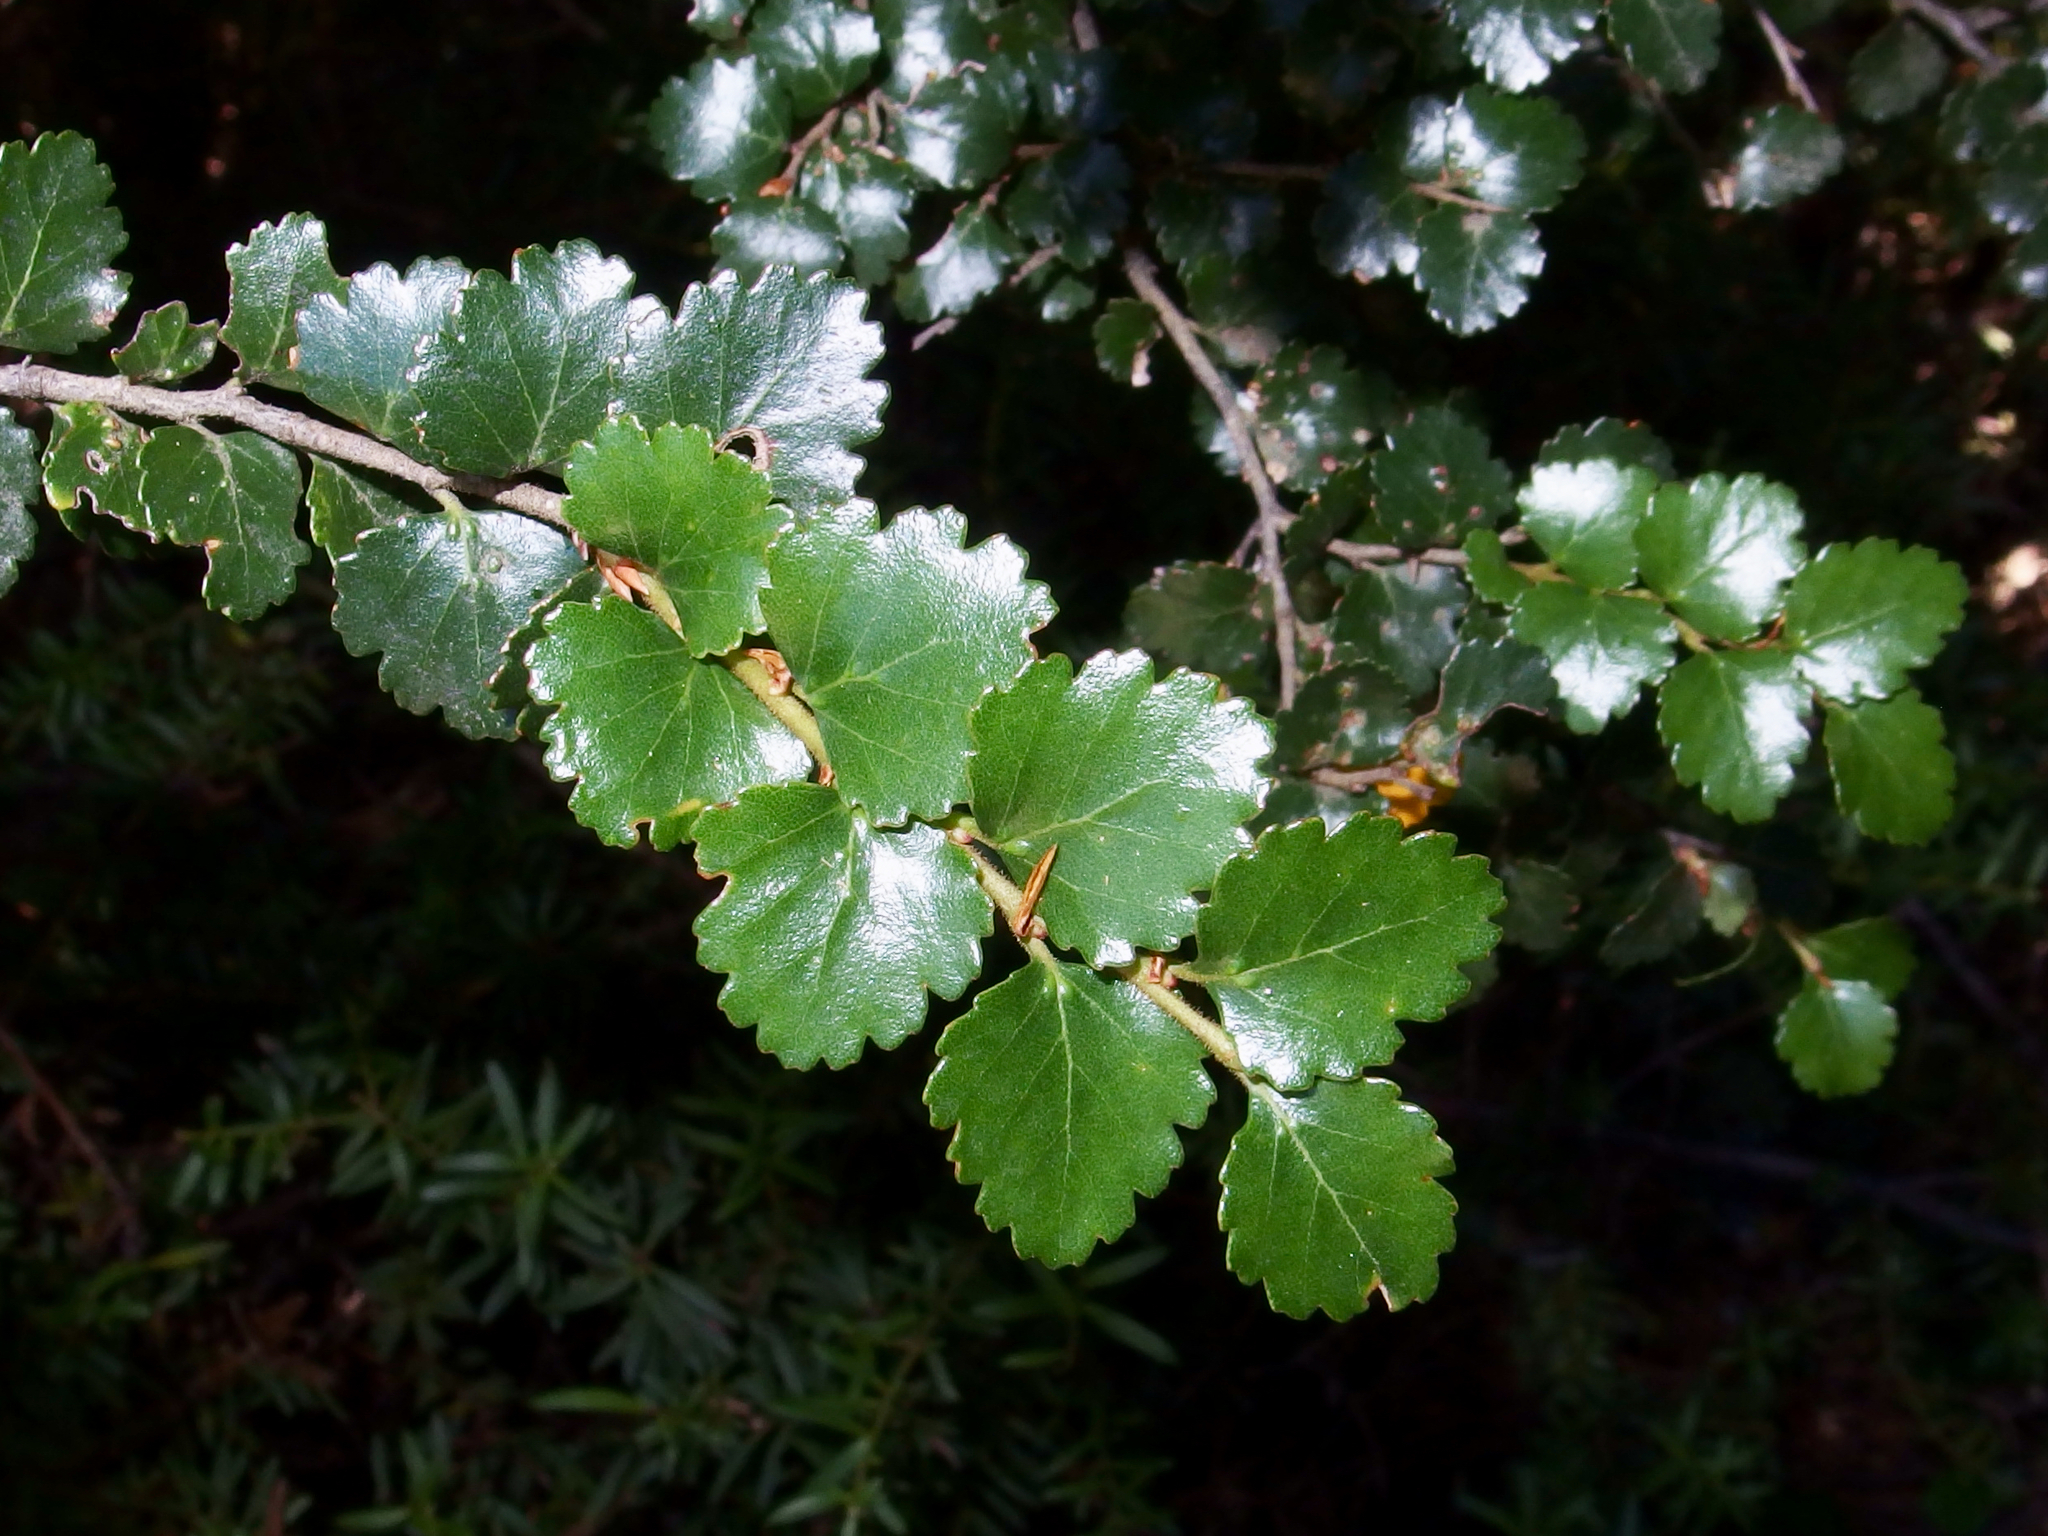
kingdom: Plantae
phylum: Tracheophyta
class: Magnoliopsida
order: Fagales
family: Nothofagaceae
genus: Nothofagus
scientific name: Nothofagus menziesii
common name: Silver beech
